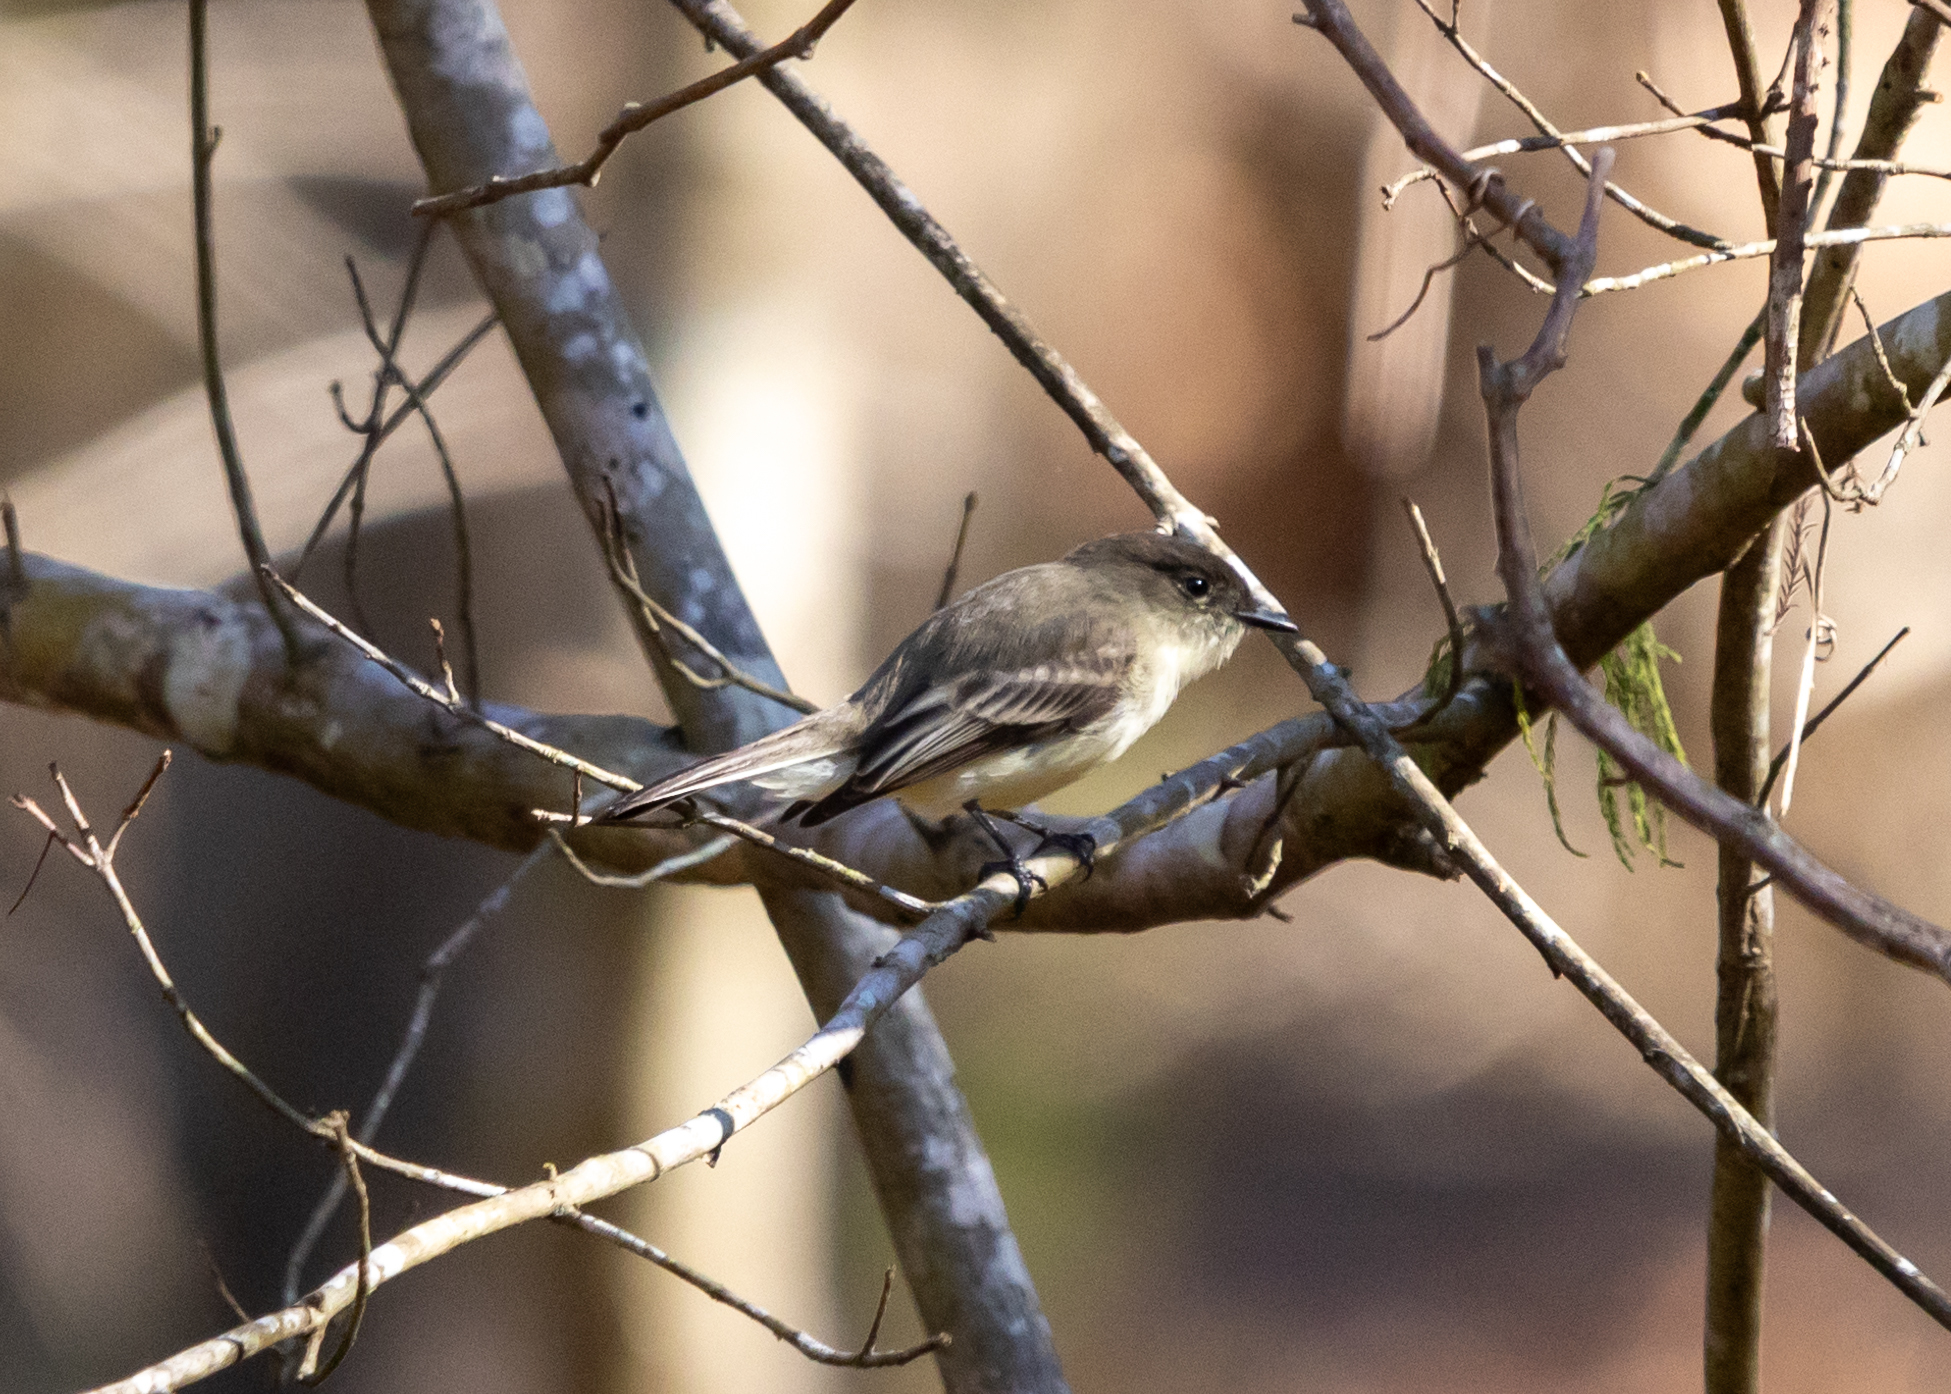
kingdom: Animalia
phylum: Chordata
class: Aves
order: Passeriformes
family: Tyrannidae
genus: Sayornis
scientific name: Sayornis phoebe
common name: Eastern phoebe
